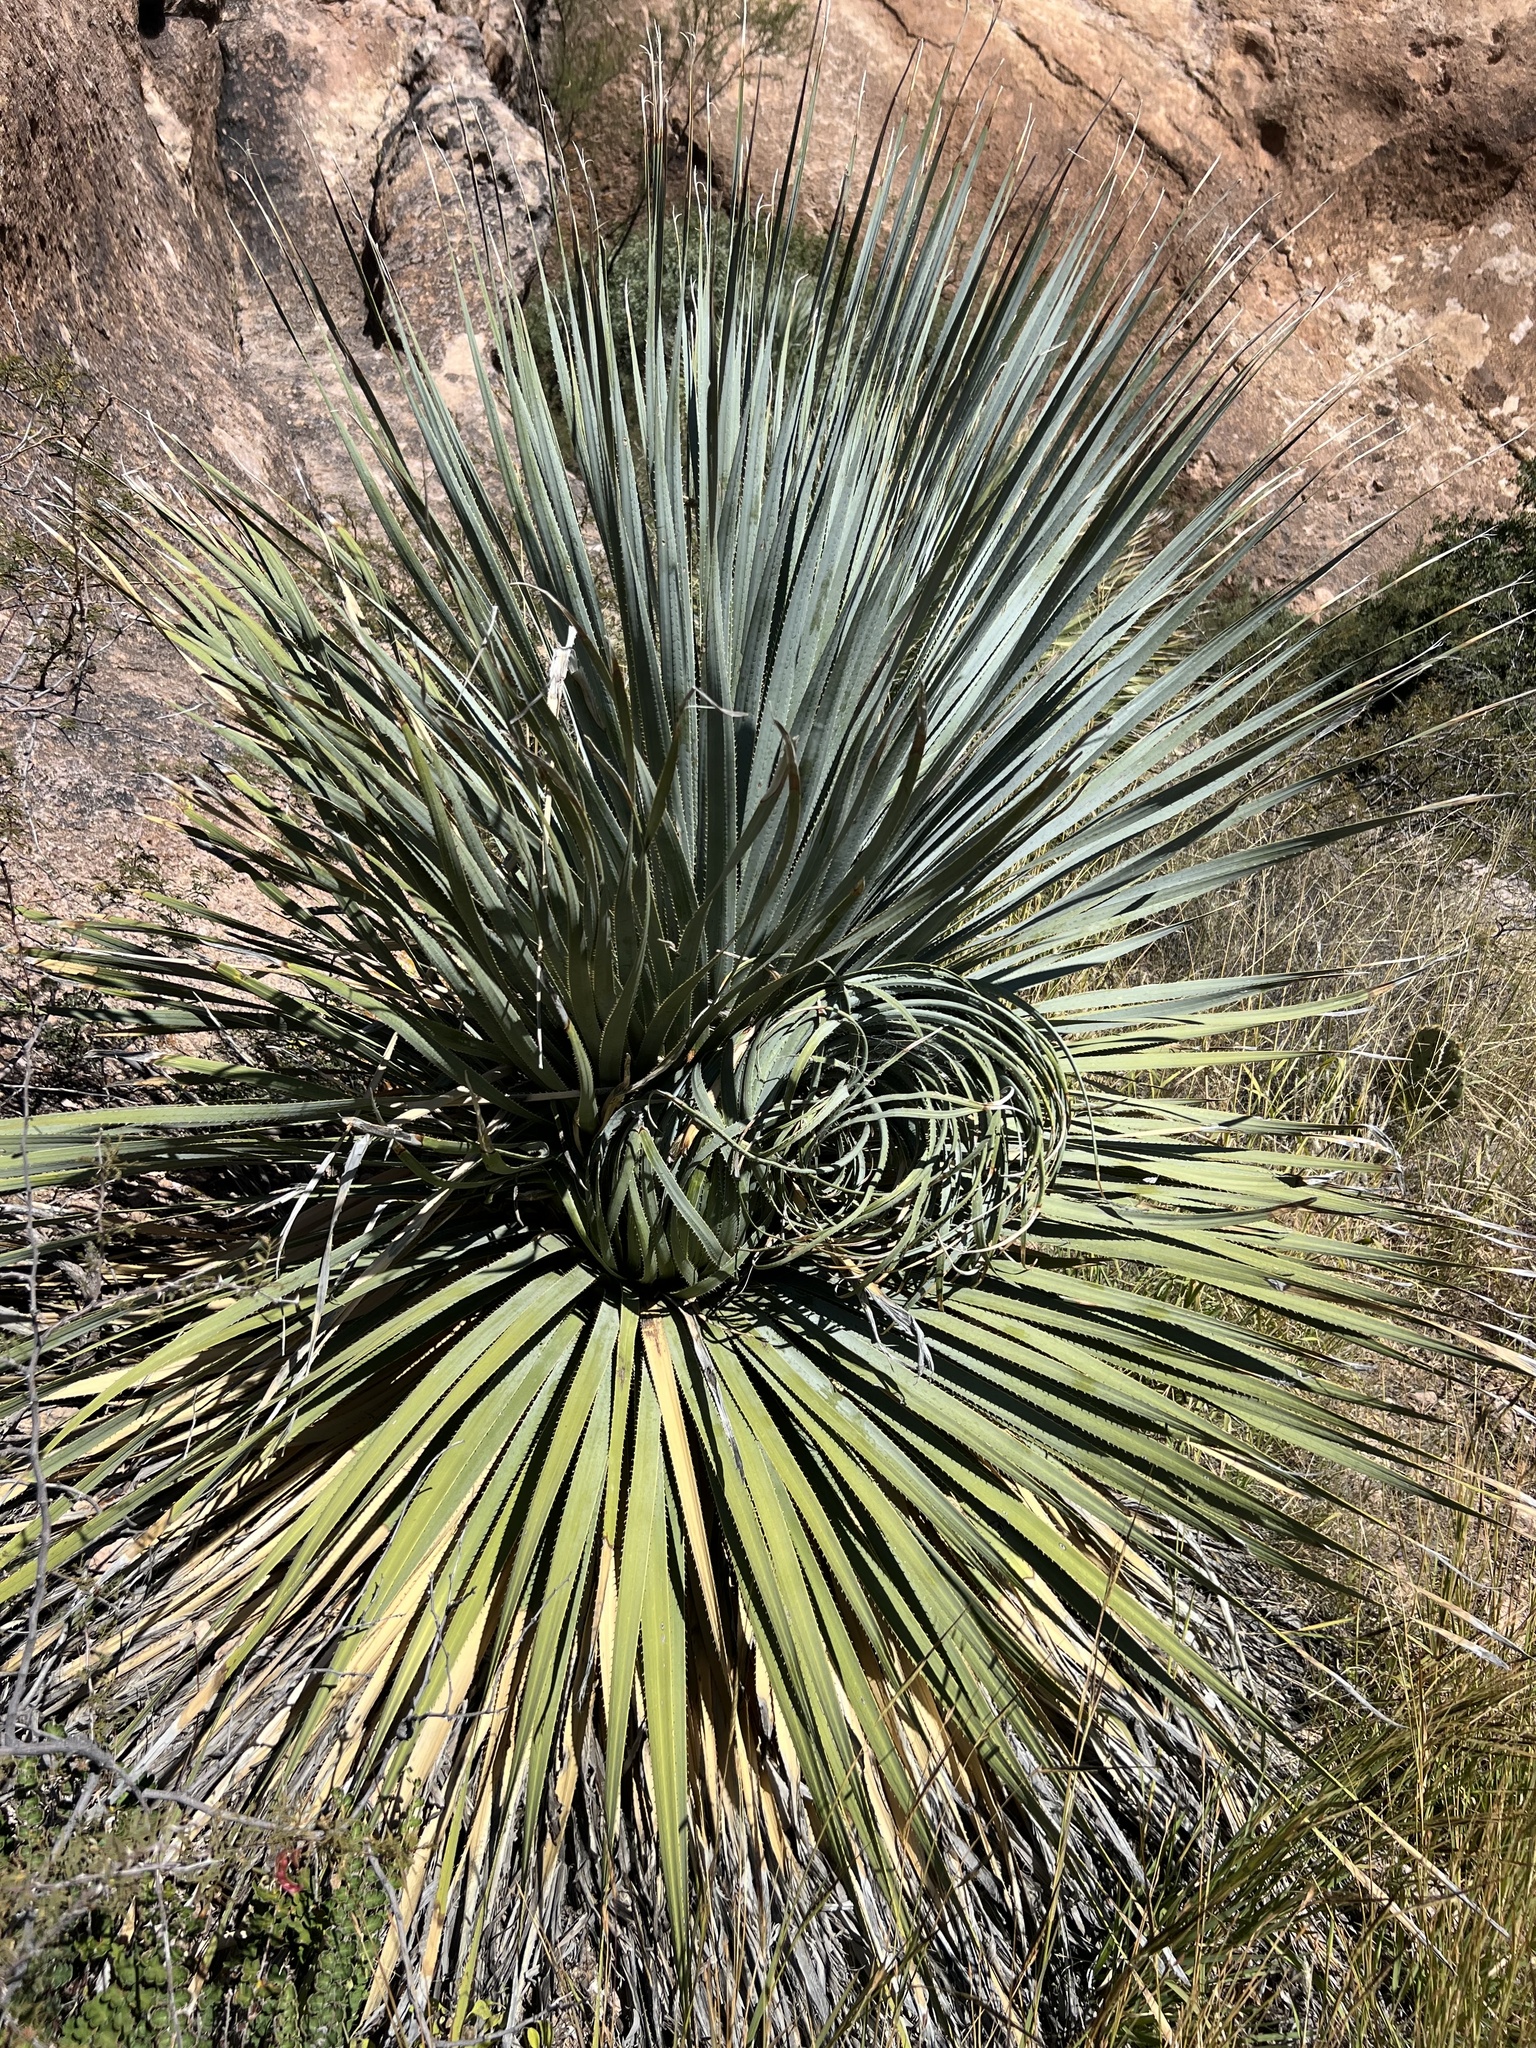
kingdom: Plantae
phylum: Tracheophyta
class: Liliopsida
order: Asparagales
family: Asparagaceae
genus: Dasylirion
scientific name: Dasylirion wheeleri
